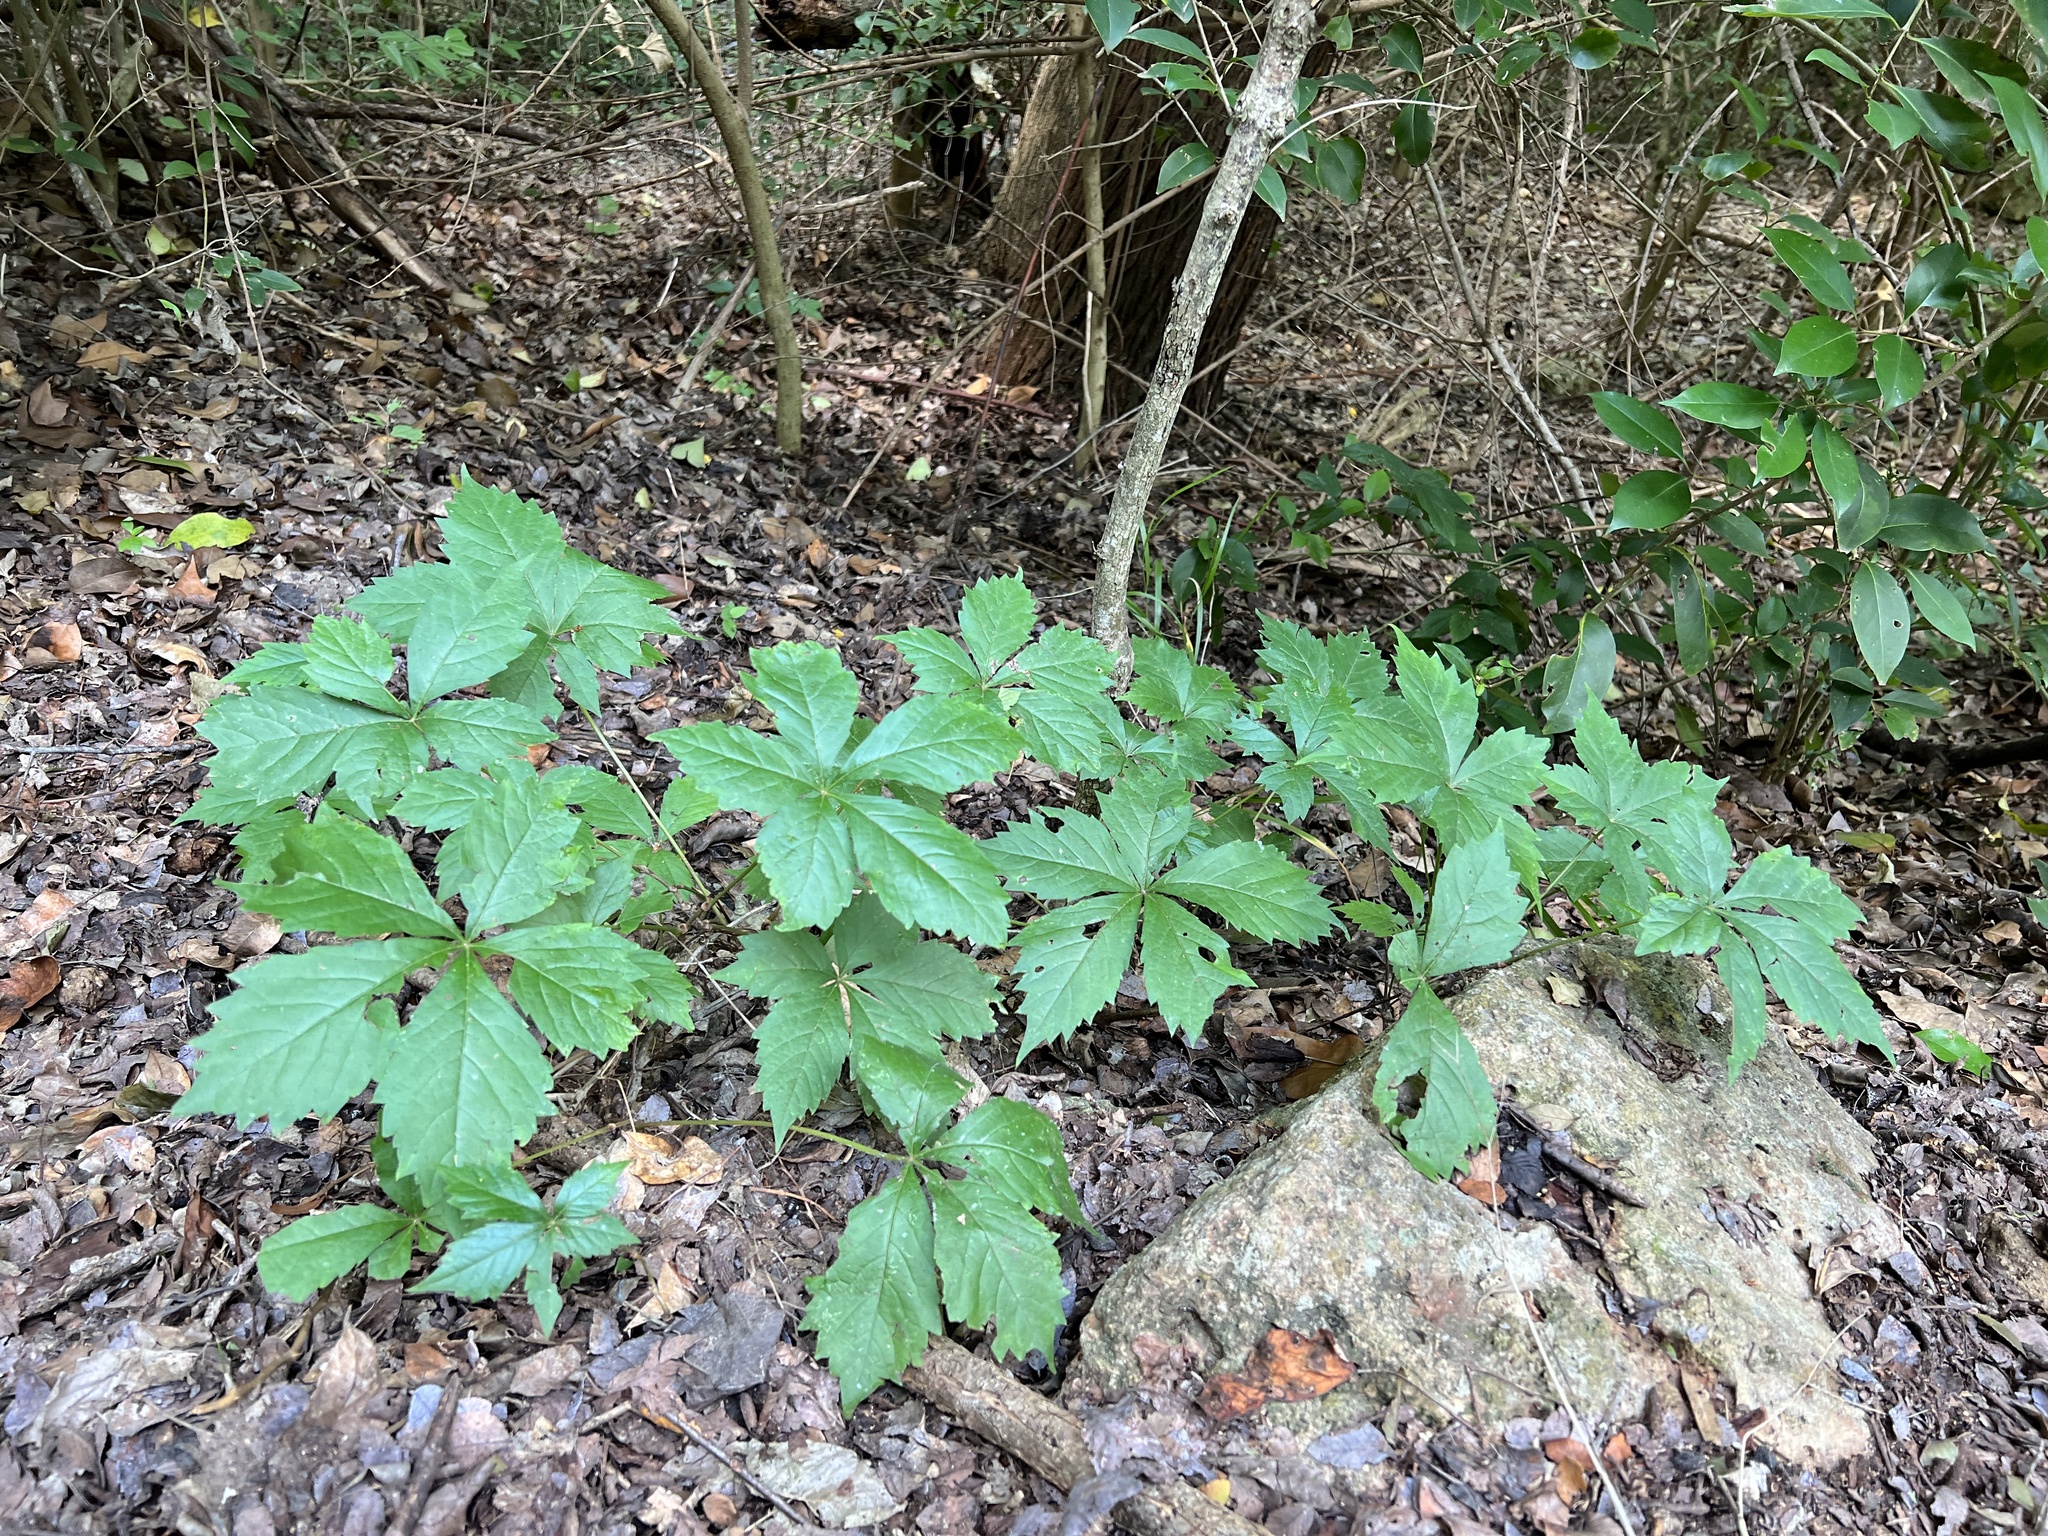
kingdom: Plantae
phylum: Tracheophyta
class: Magnoliopsida
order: Vitales
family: Vitaceae
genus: Parthenocissus
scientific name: Parthenocissus quinquefolia
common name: Virginia-creeper
